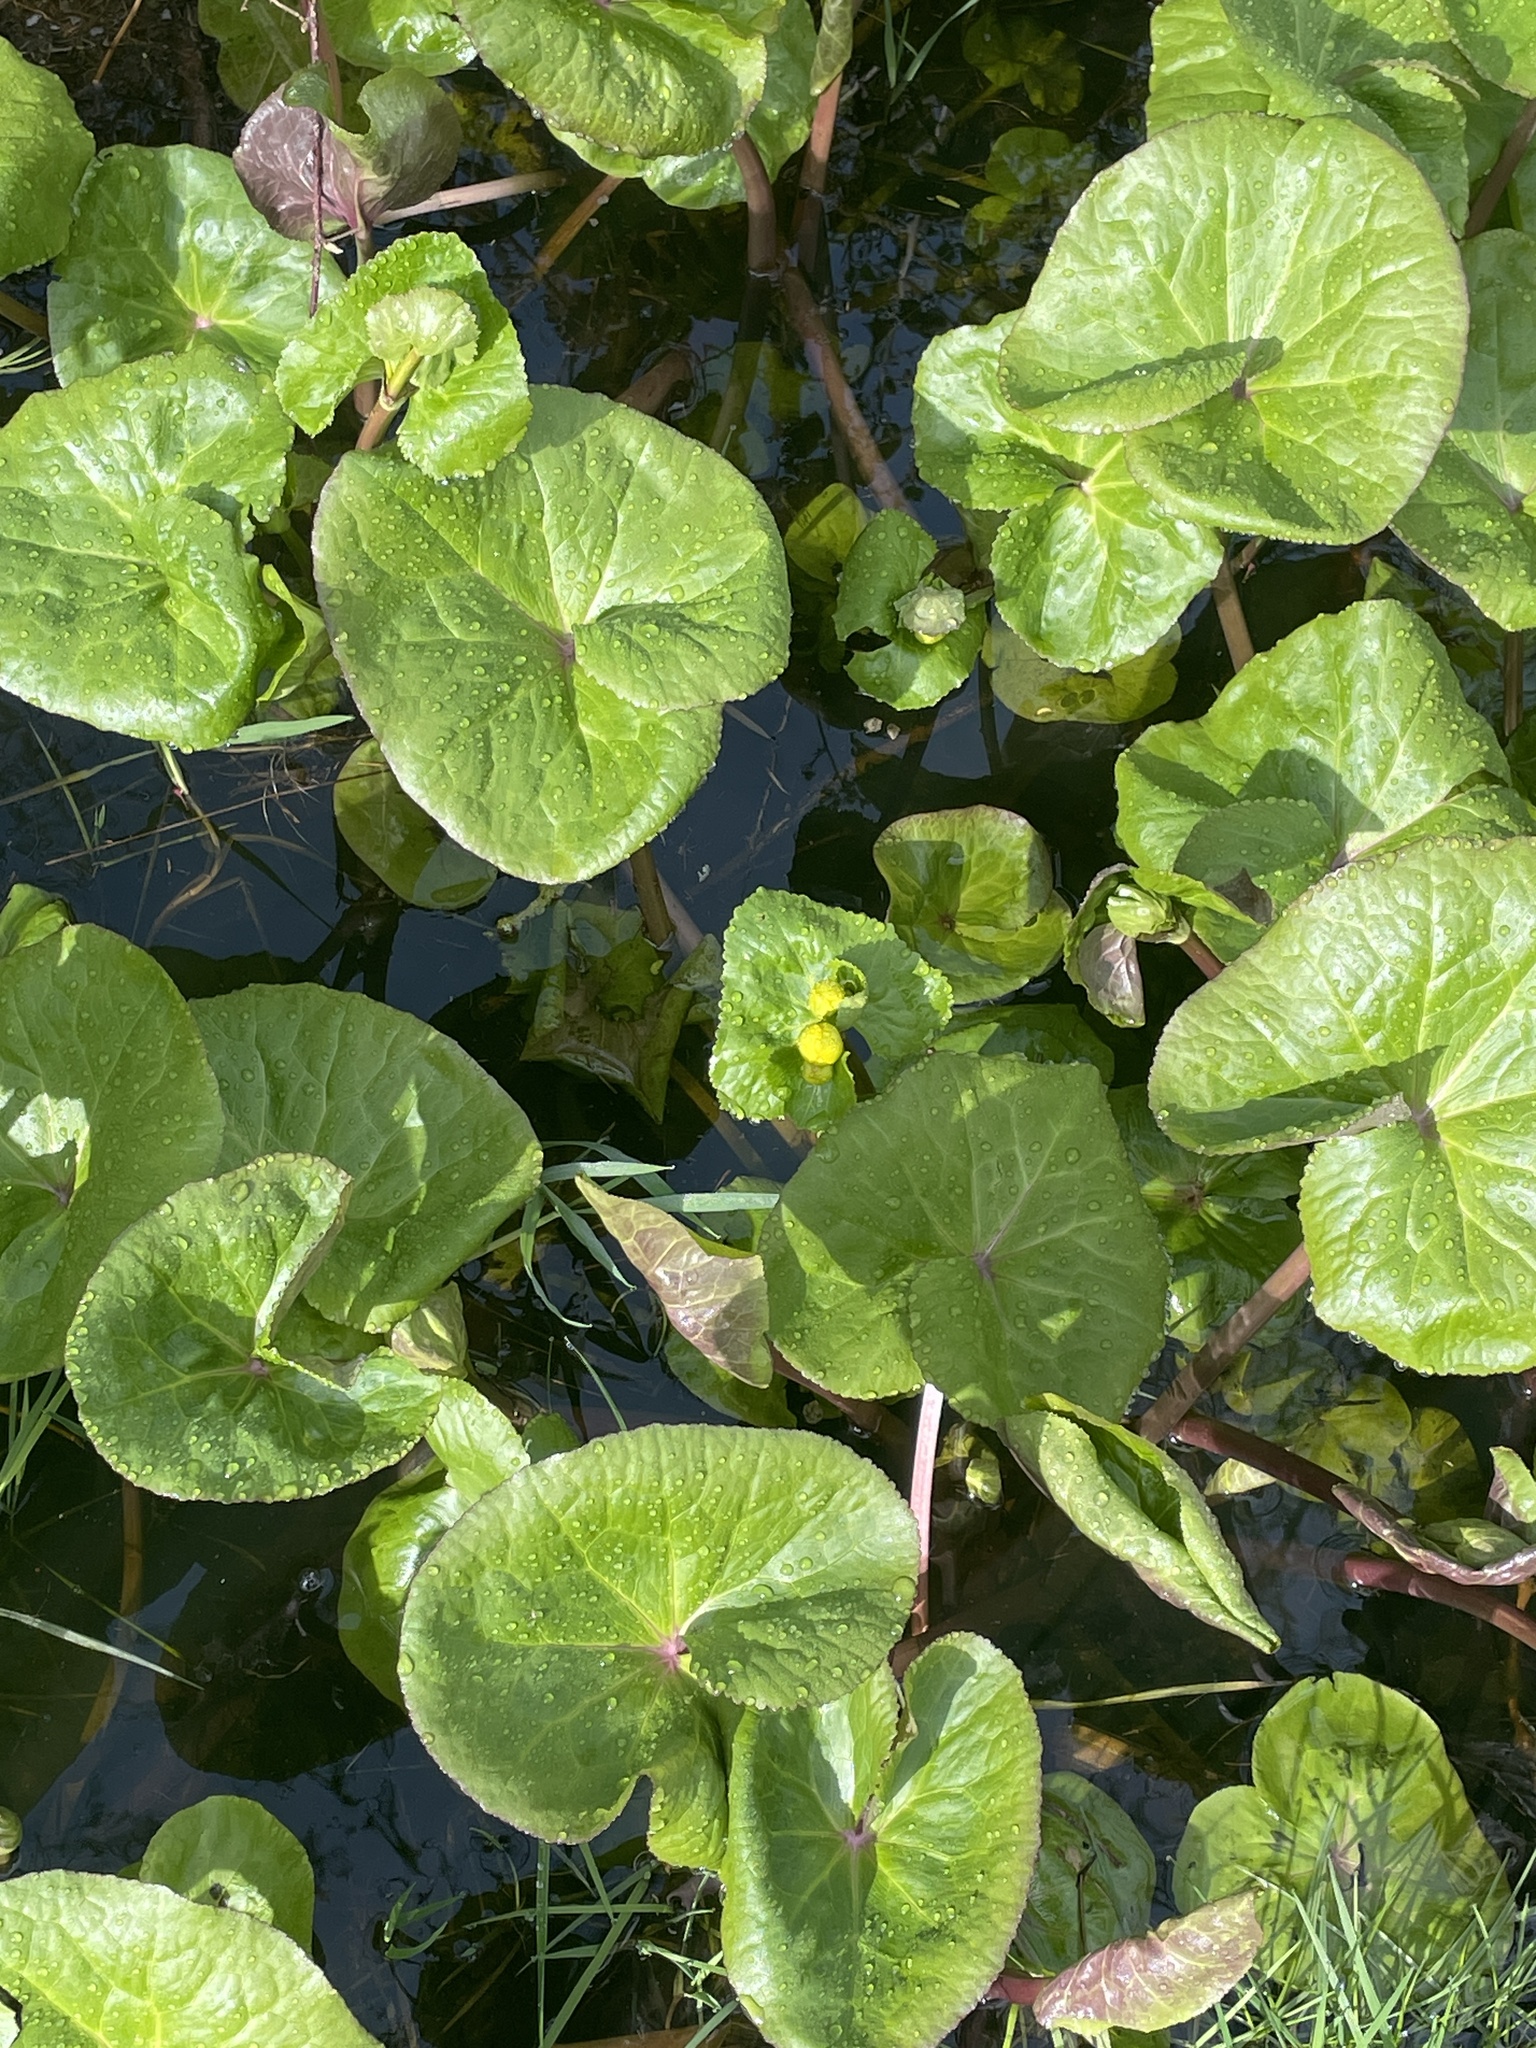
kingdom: Plantae
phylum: Tracheophyta
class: Magnoliopsida
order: Ranunculales
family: Ranunculaceae
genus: Caltha
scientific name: Caltha palustris
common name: Marsh marigold
